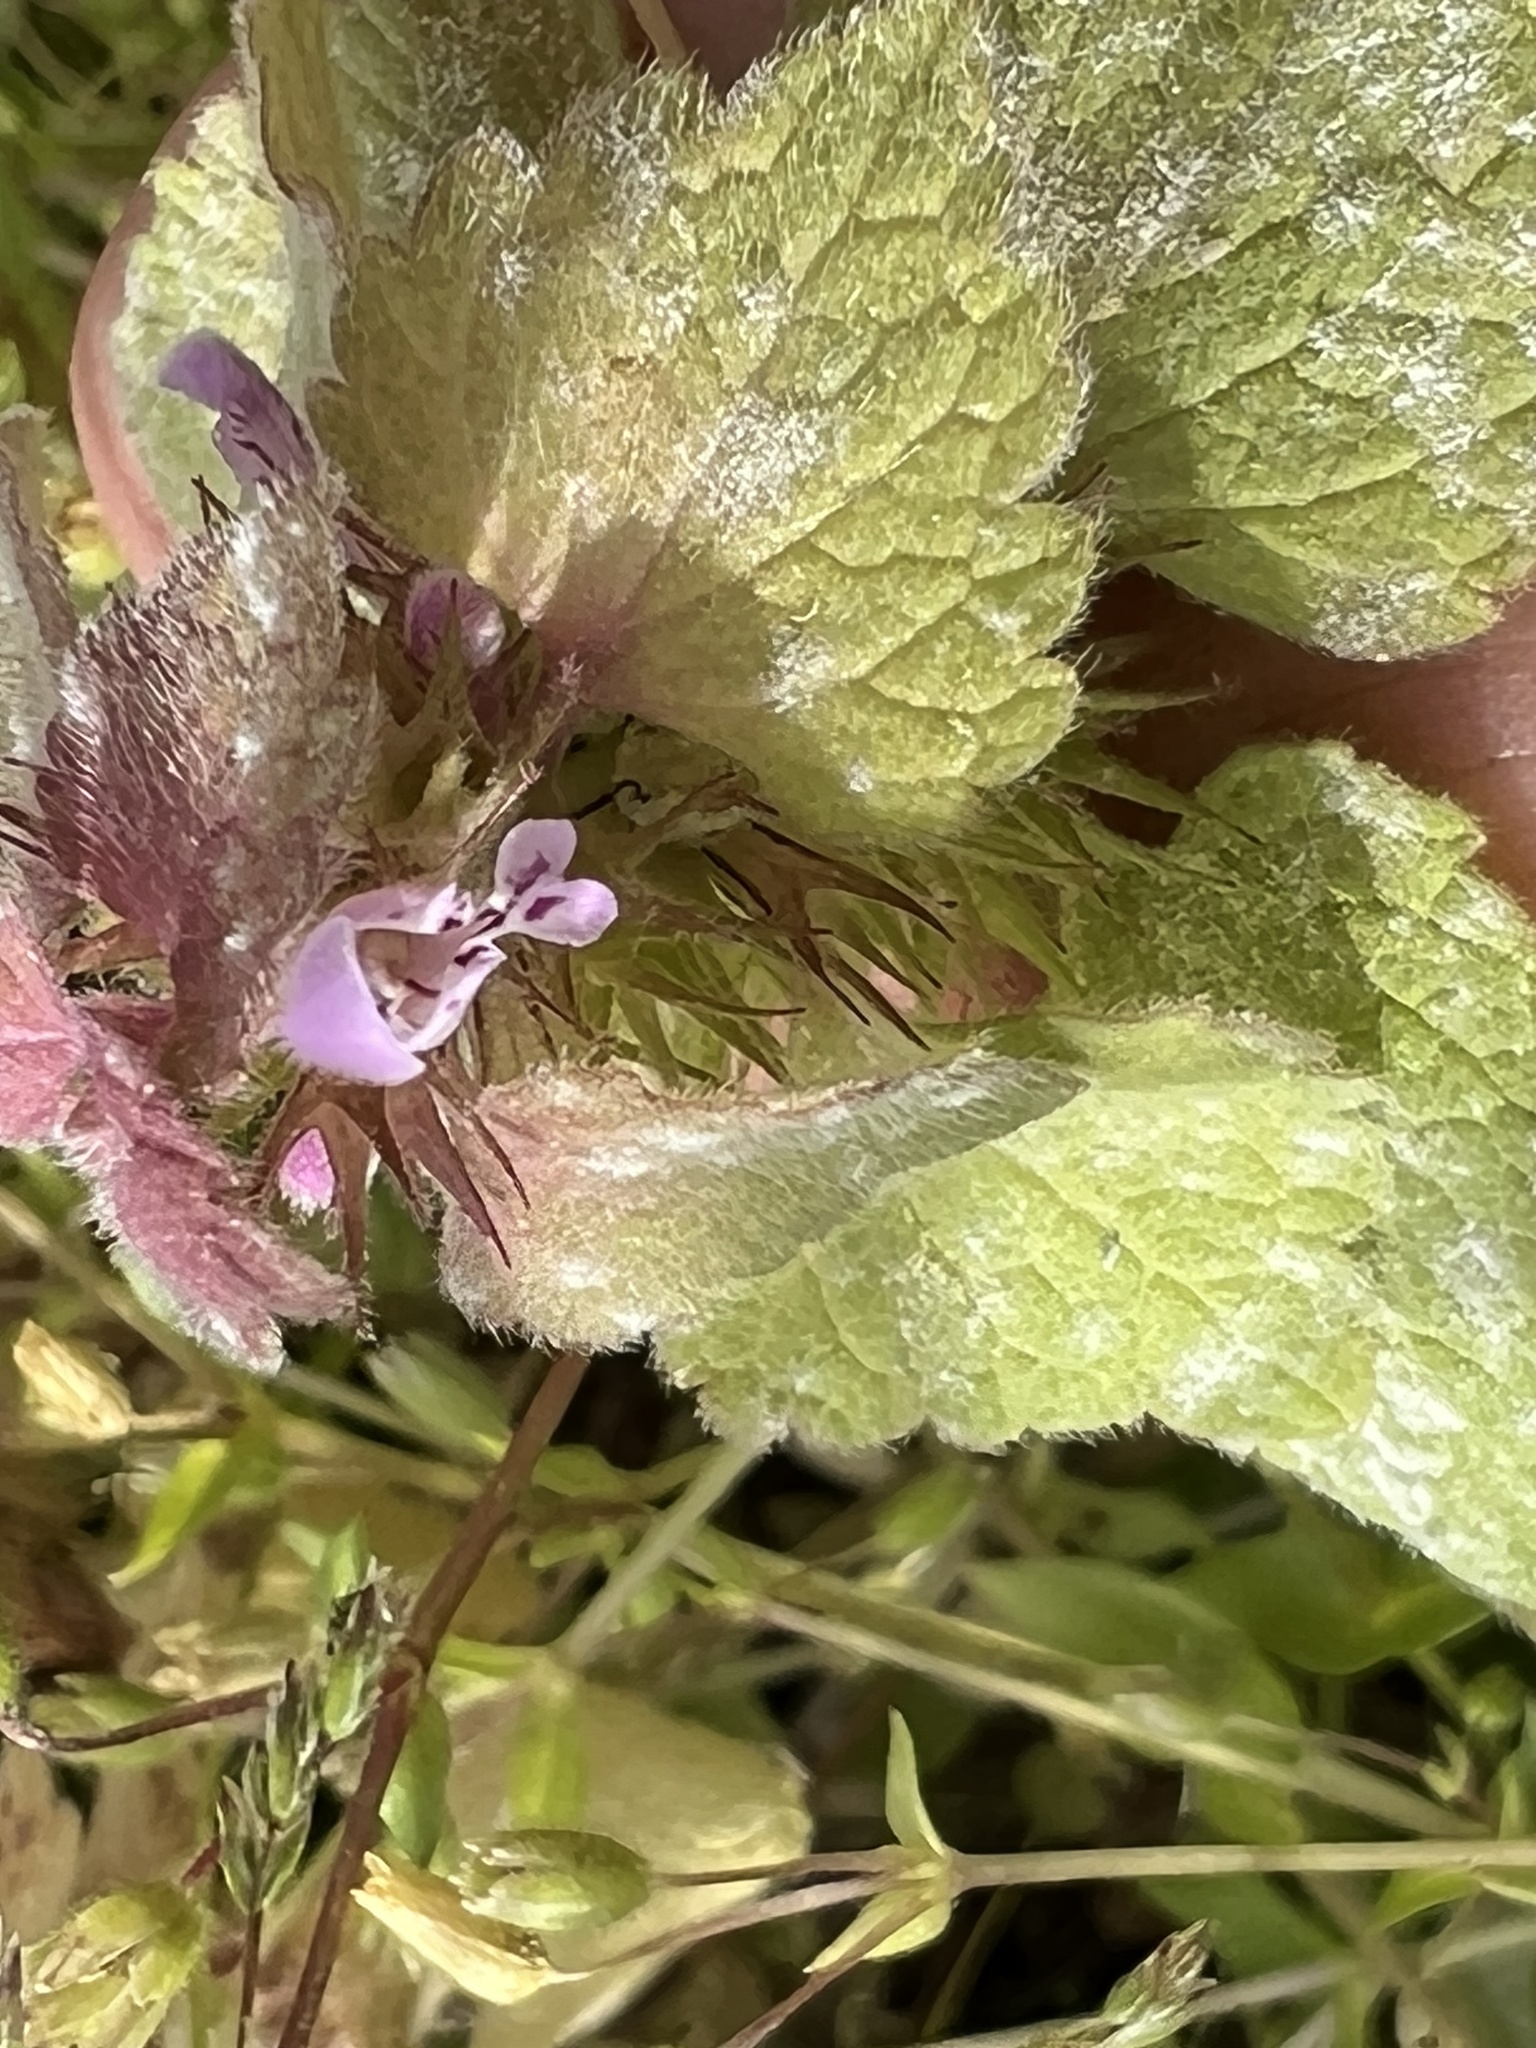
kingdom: Plantae
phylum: Tracheophyta
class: Magnoliopsida
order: Lamiales
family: Lamiaceae
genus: Lamium
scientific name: Lamium purpureum
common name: Red dead-nettle
